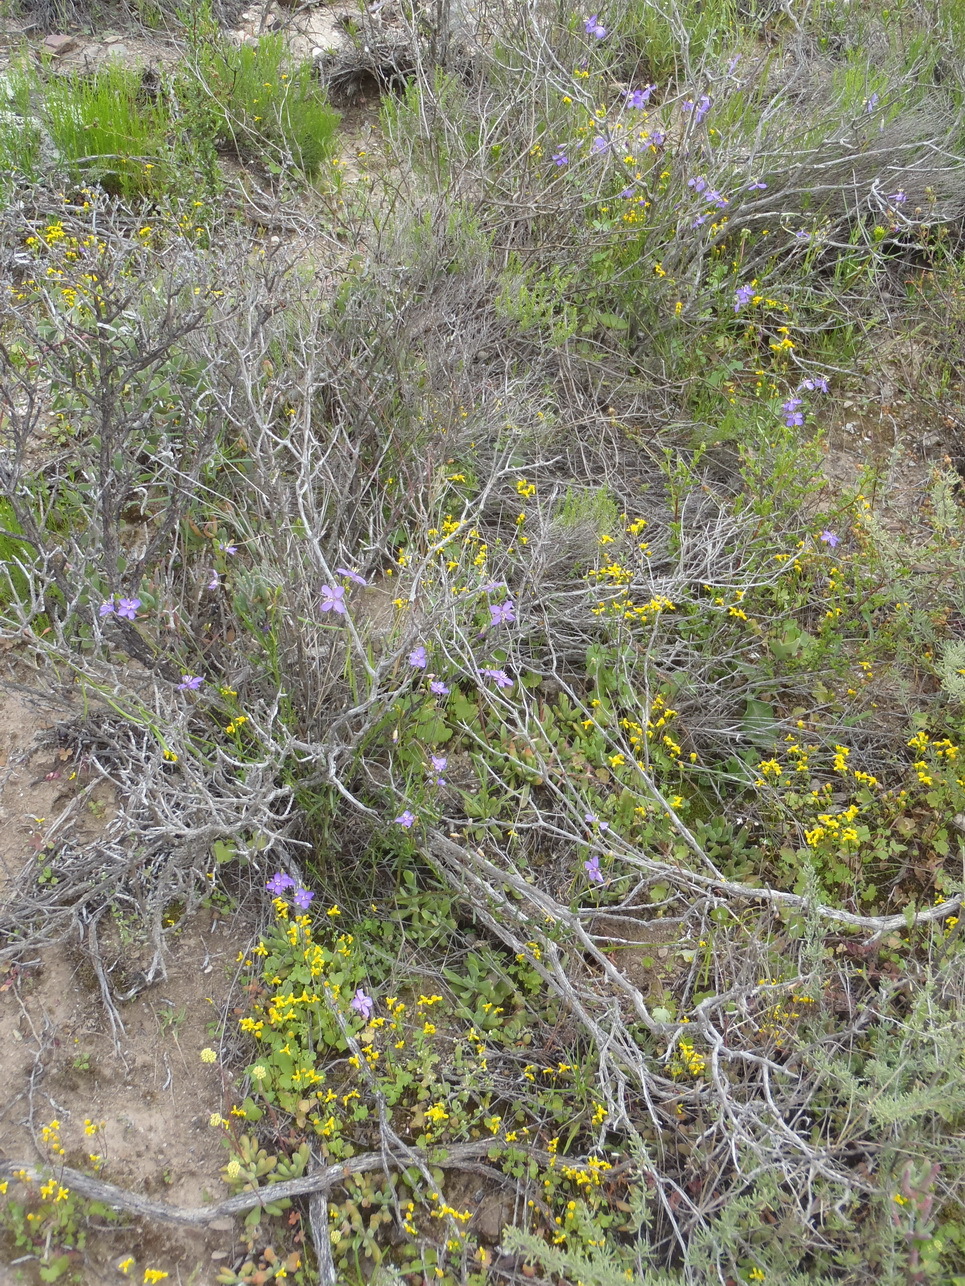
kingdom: Plantae
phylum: Tracheophyta
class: Magnoliopsida
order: Brassicales
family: Brassicaceae
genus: Heliophila
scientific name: Heliophila subulata
